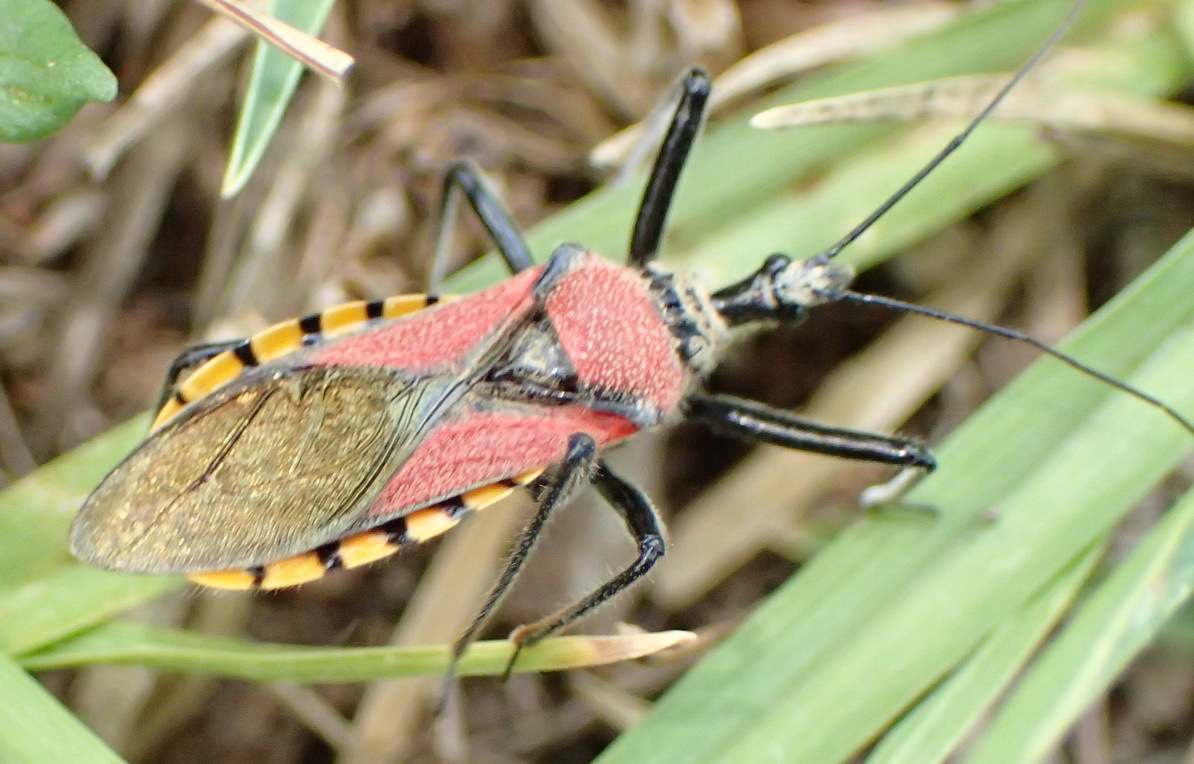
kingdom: Animalia
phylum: Arthropoda
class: Insecta
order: Hemiptera
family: Reduviidae
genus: Rhynocoris
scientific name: Rhynocoris segmentarius
